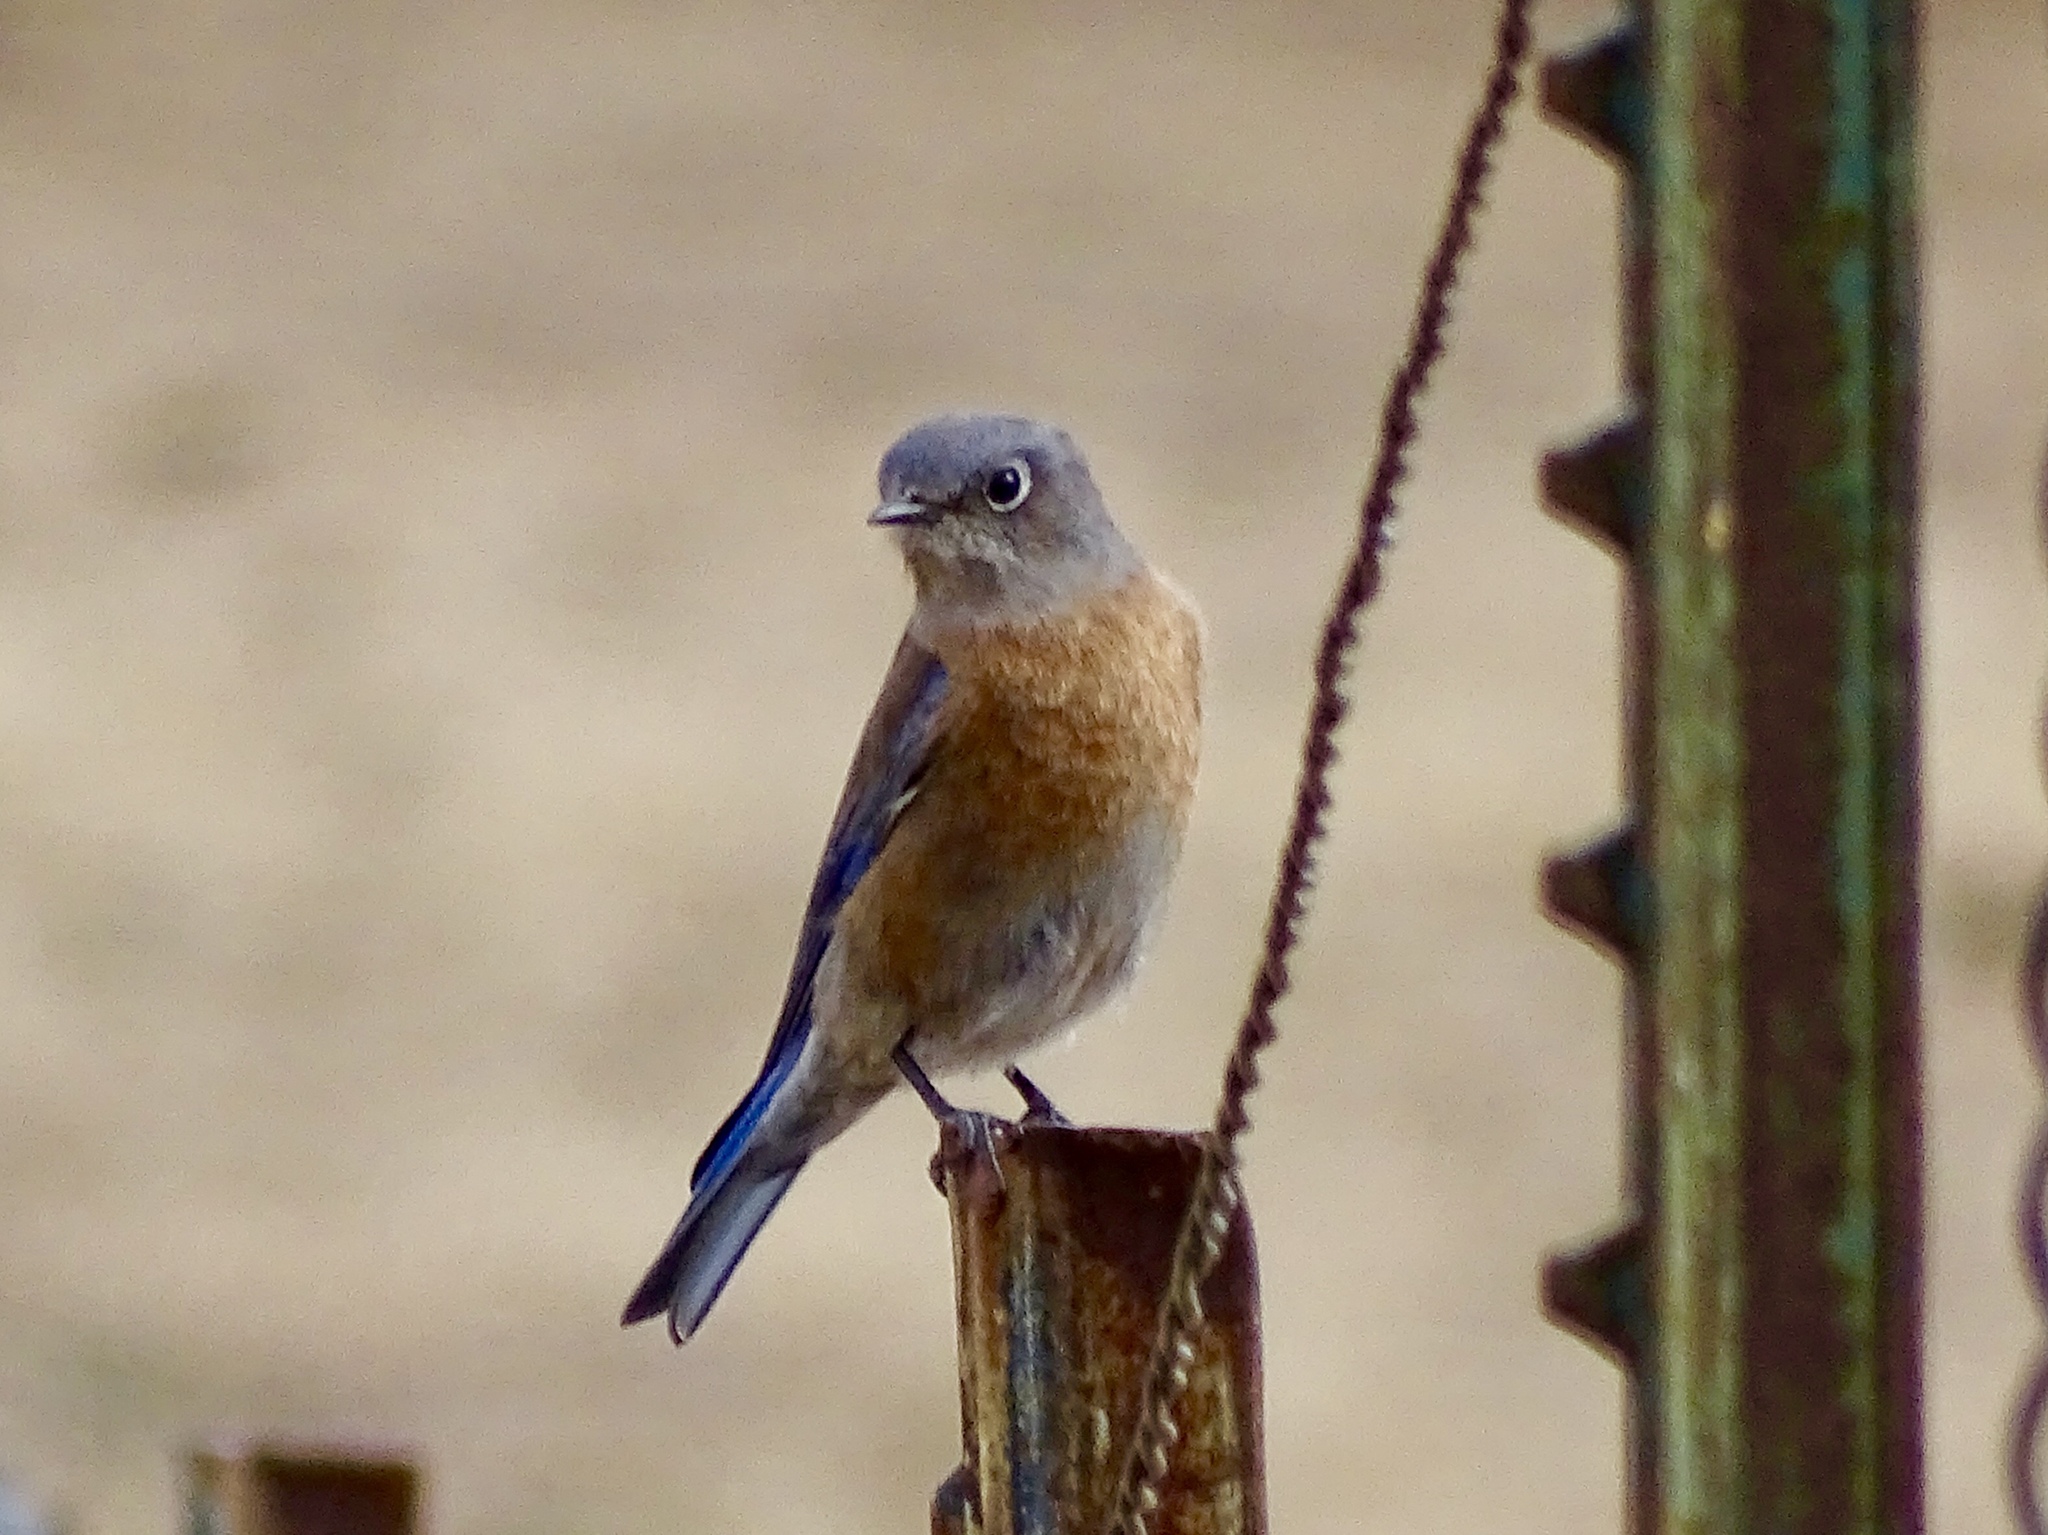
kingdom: Animalia
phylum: Chordata
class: Aves
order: Passeriformes
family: Turdidae
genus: Sialia
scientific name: Sialia mexicana
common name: Western bluebird
